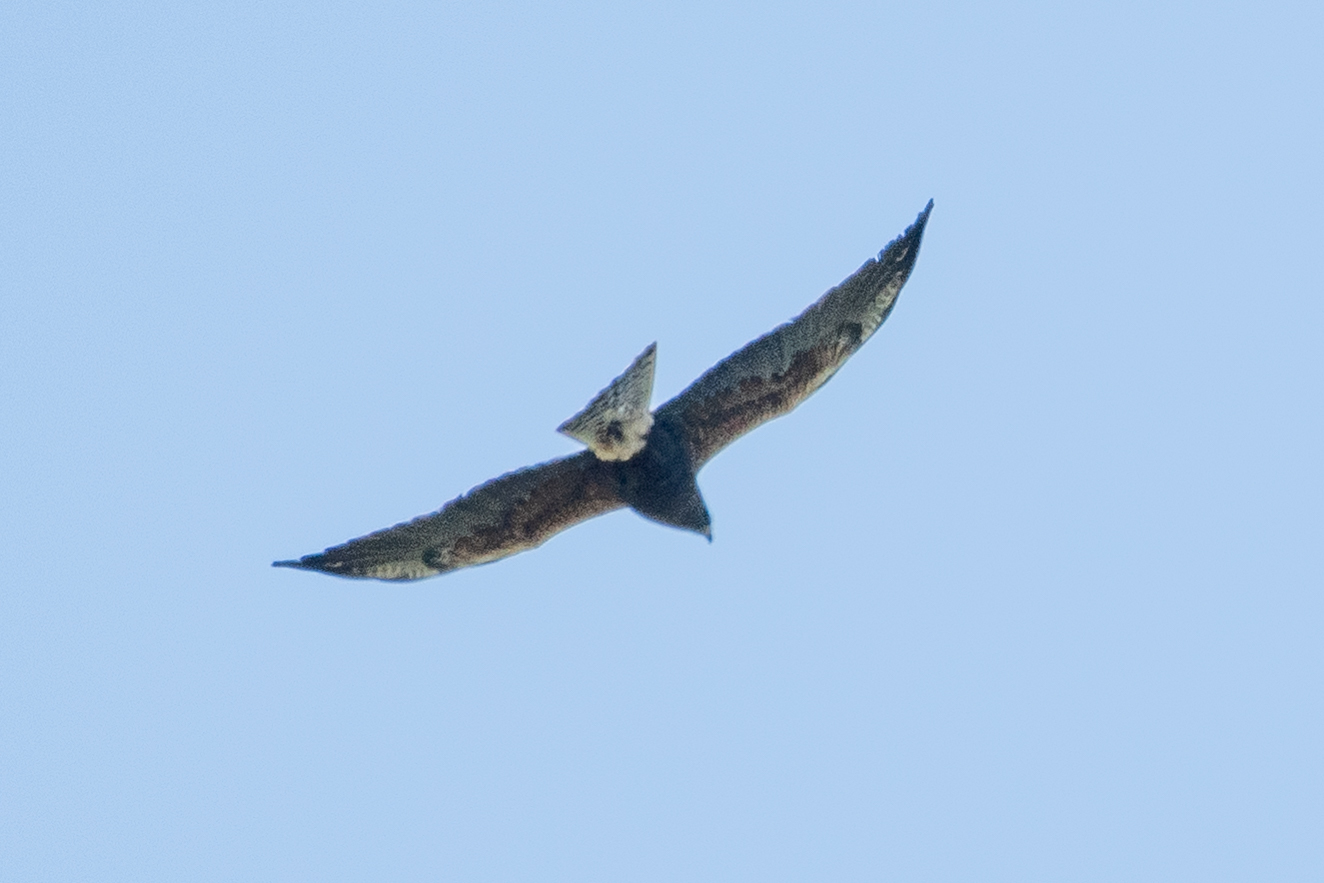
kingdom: Animalia
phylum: Chordata
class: Aves
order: Accipitriformes
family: Accipitridae
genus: Buteo
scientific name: Buteo swainsoni
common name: Swainson's hawk
